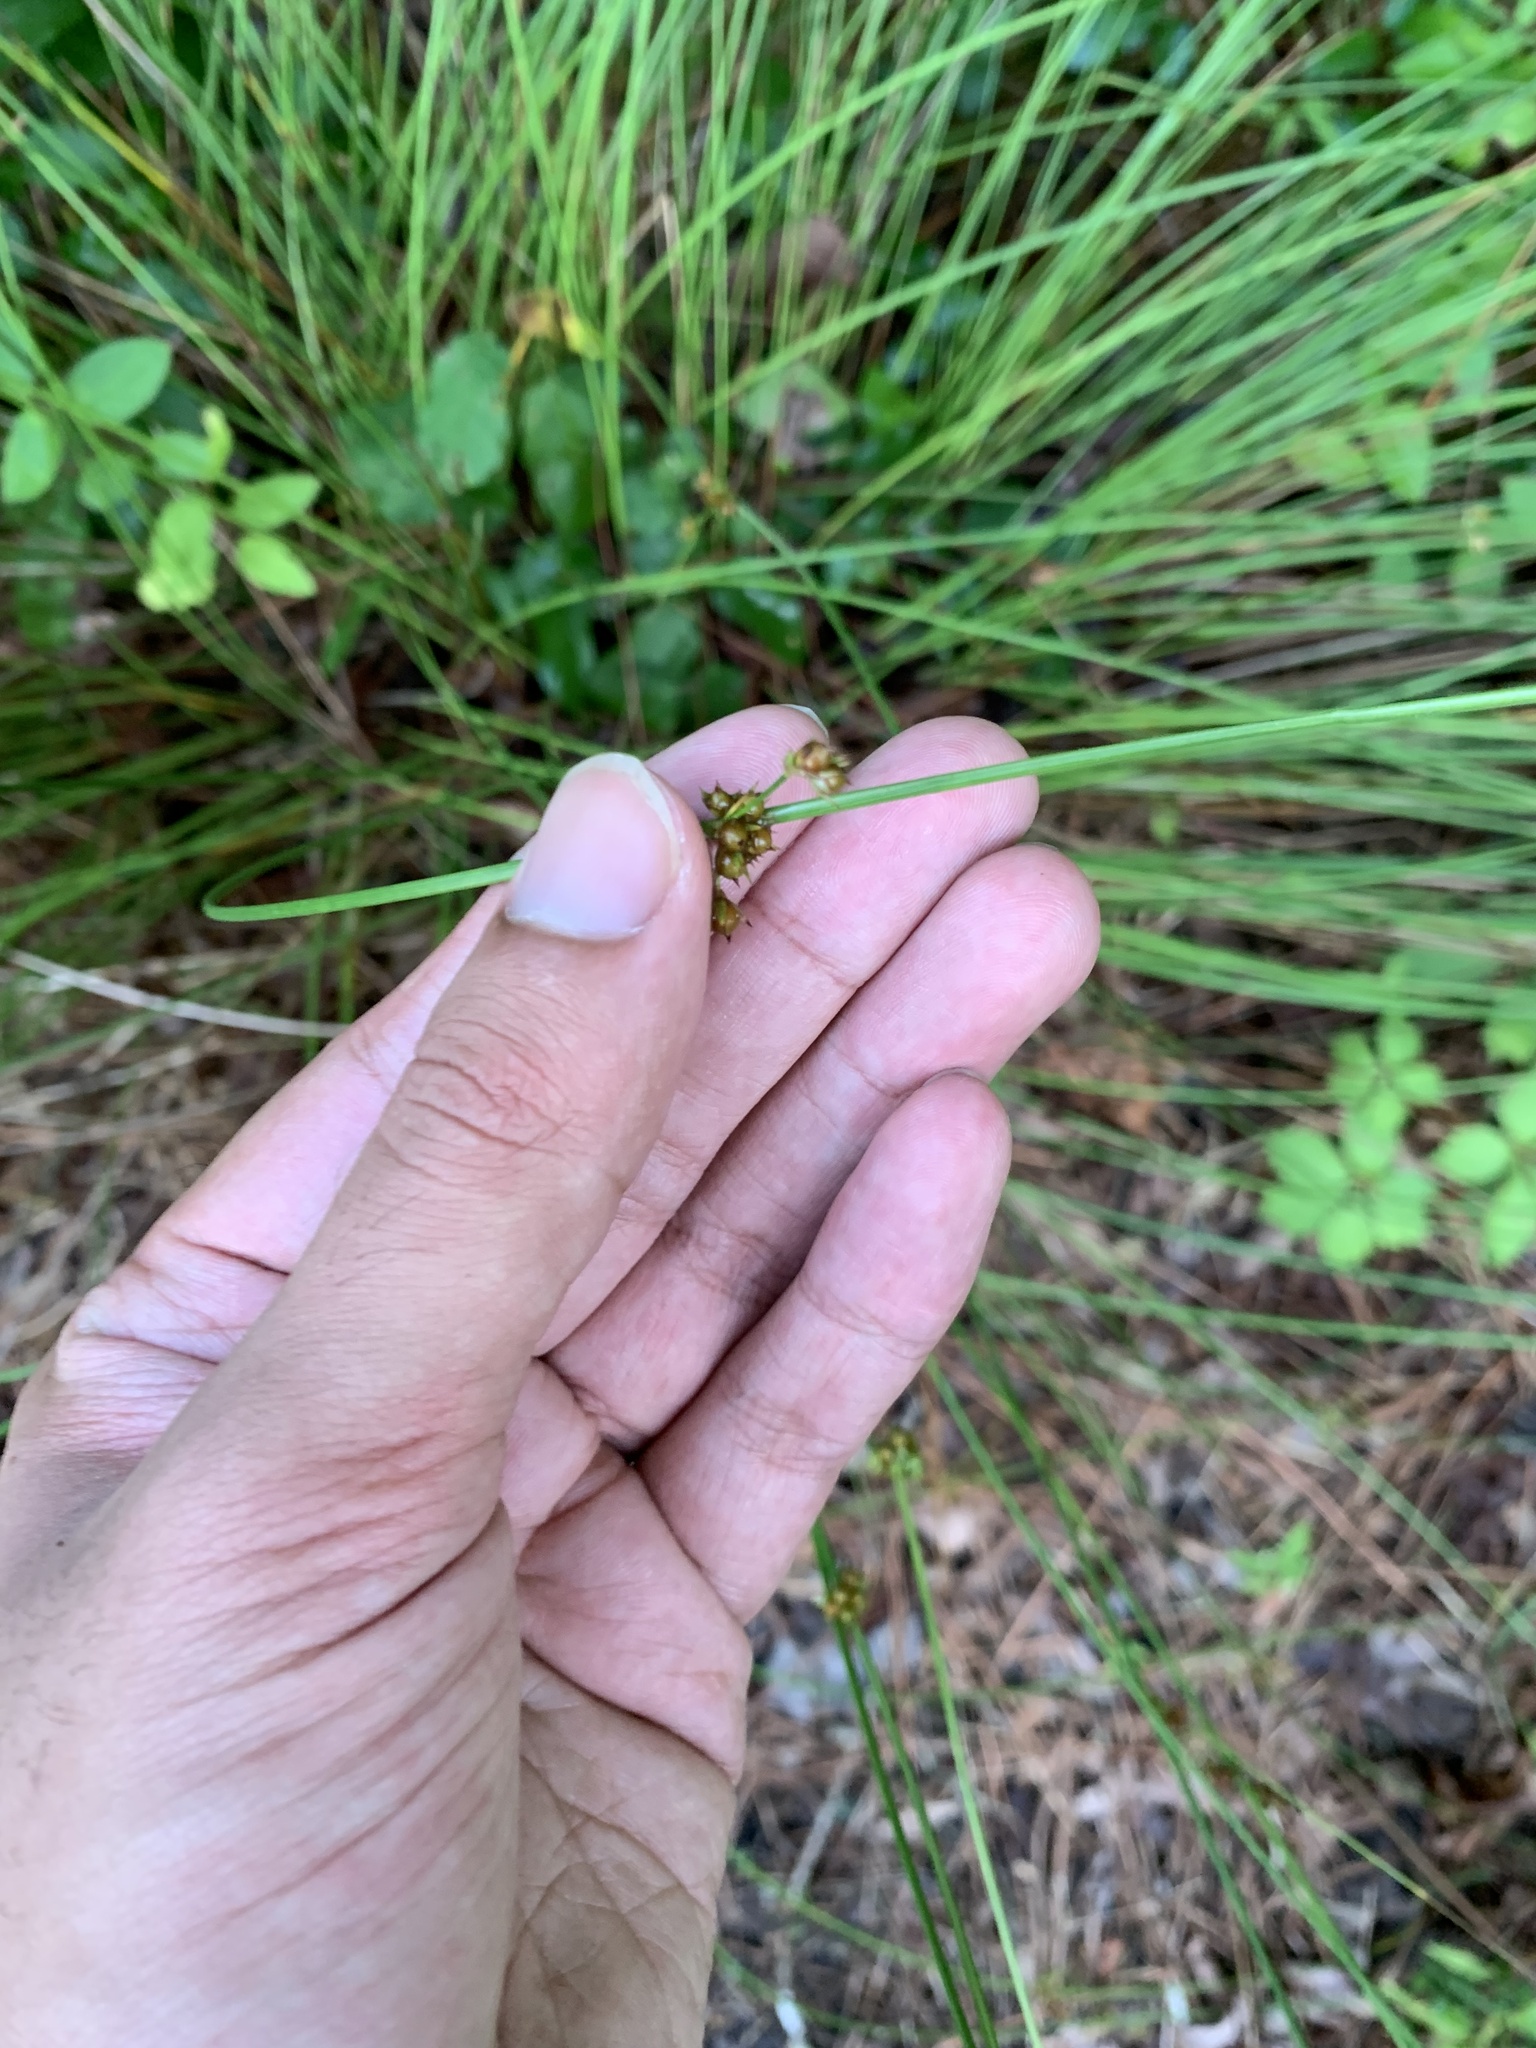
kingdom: Plantae
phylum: Tracheophyta
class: Liliopsida
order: Poales
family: Juncaceae
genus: Juncus
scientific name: Juncus coriaceus
